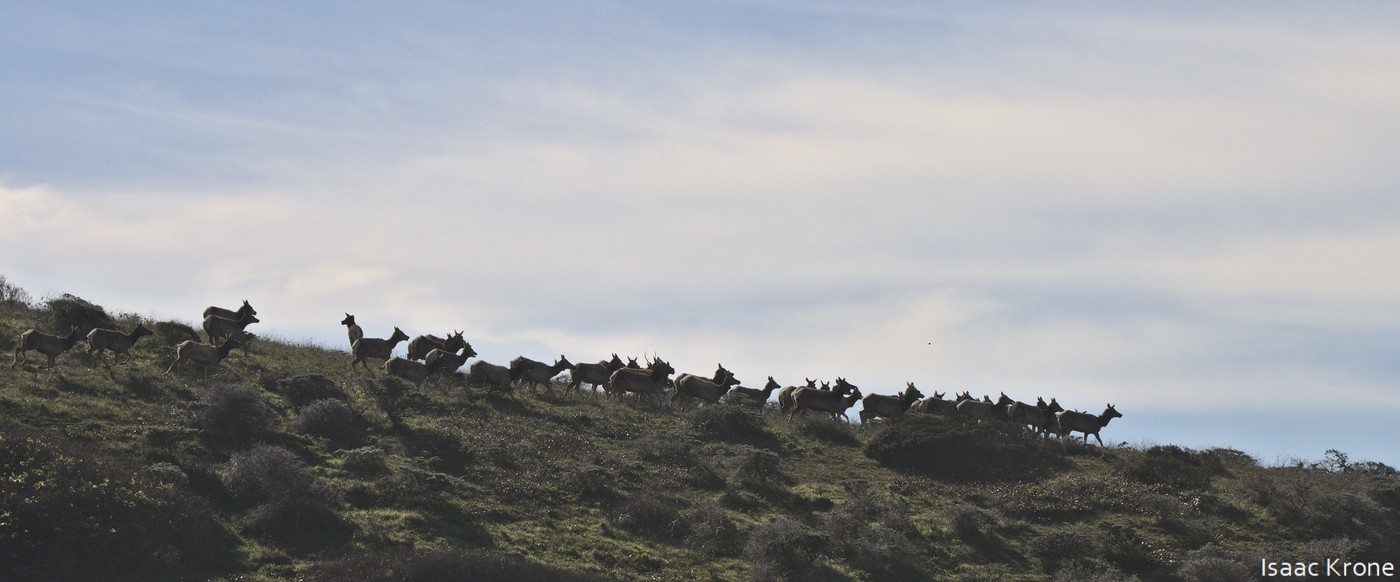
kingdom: Animalia
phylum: Chordata
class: Mammalia
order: Artiodactyla
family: Cervidae
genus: Cervus
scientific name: Cervus elaphus
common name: Red deer
